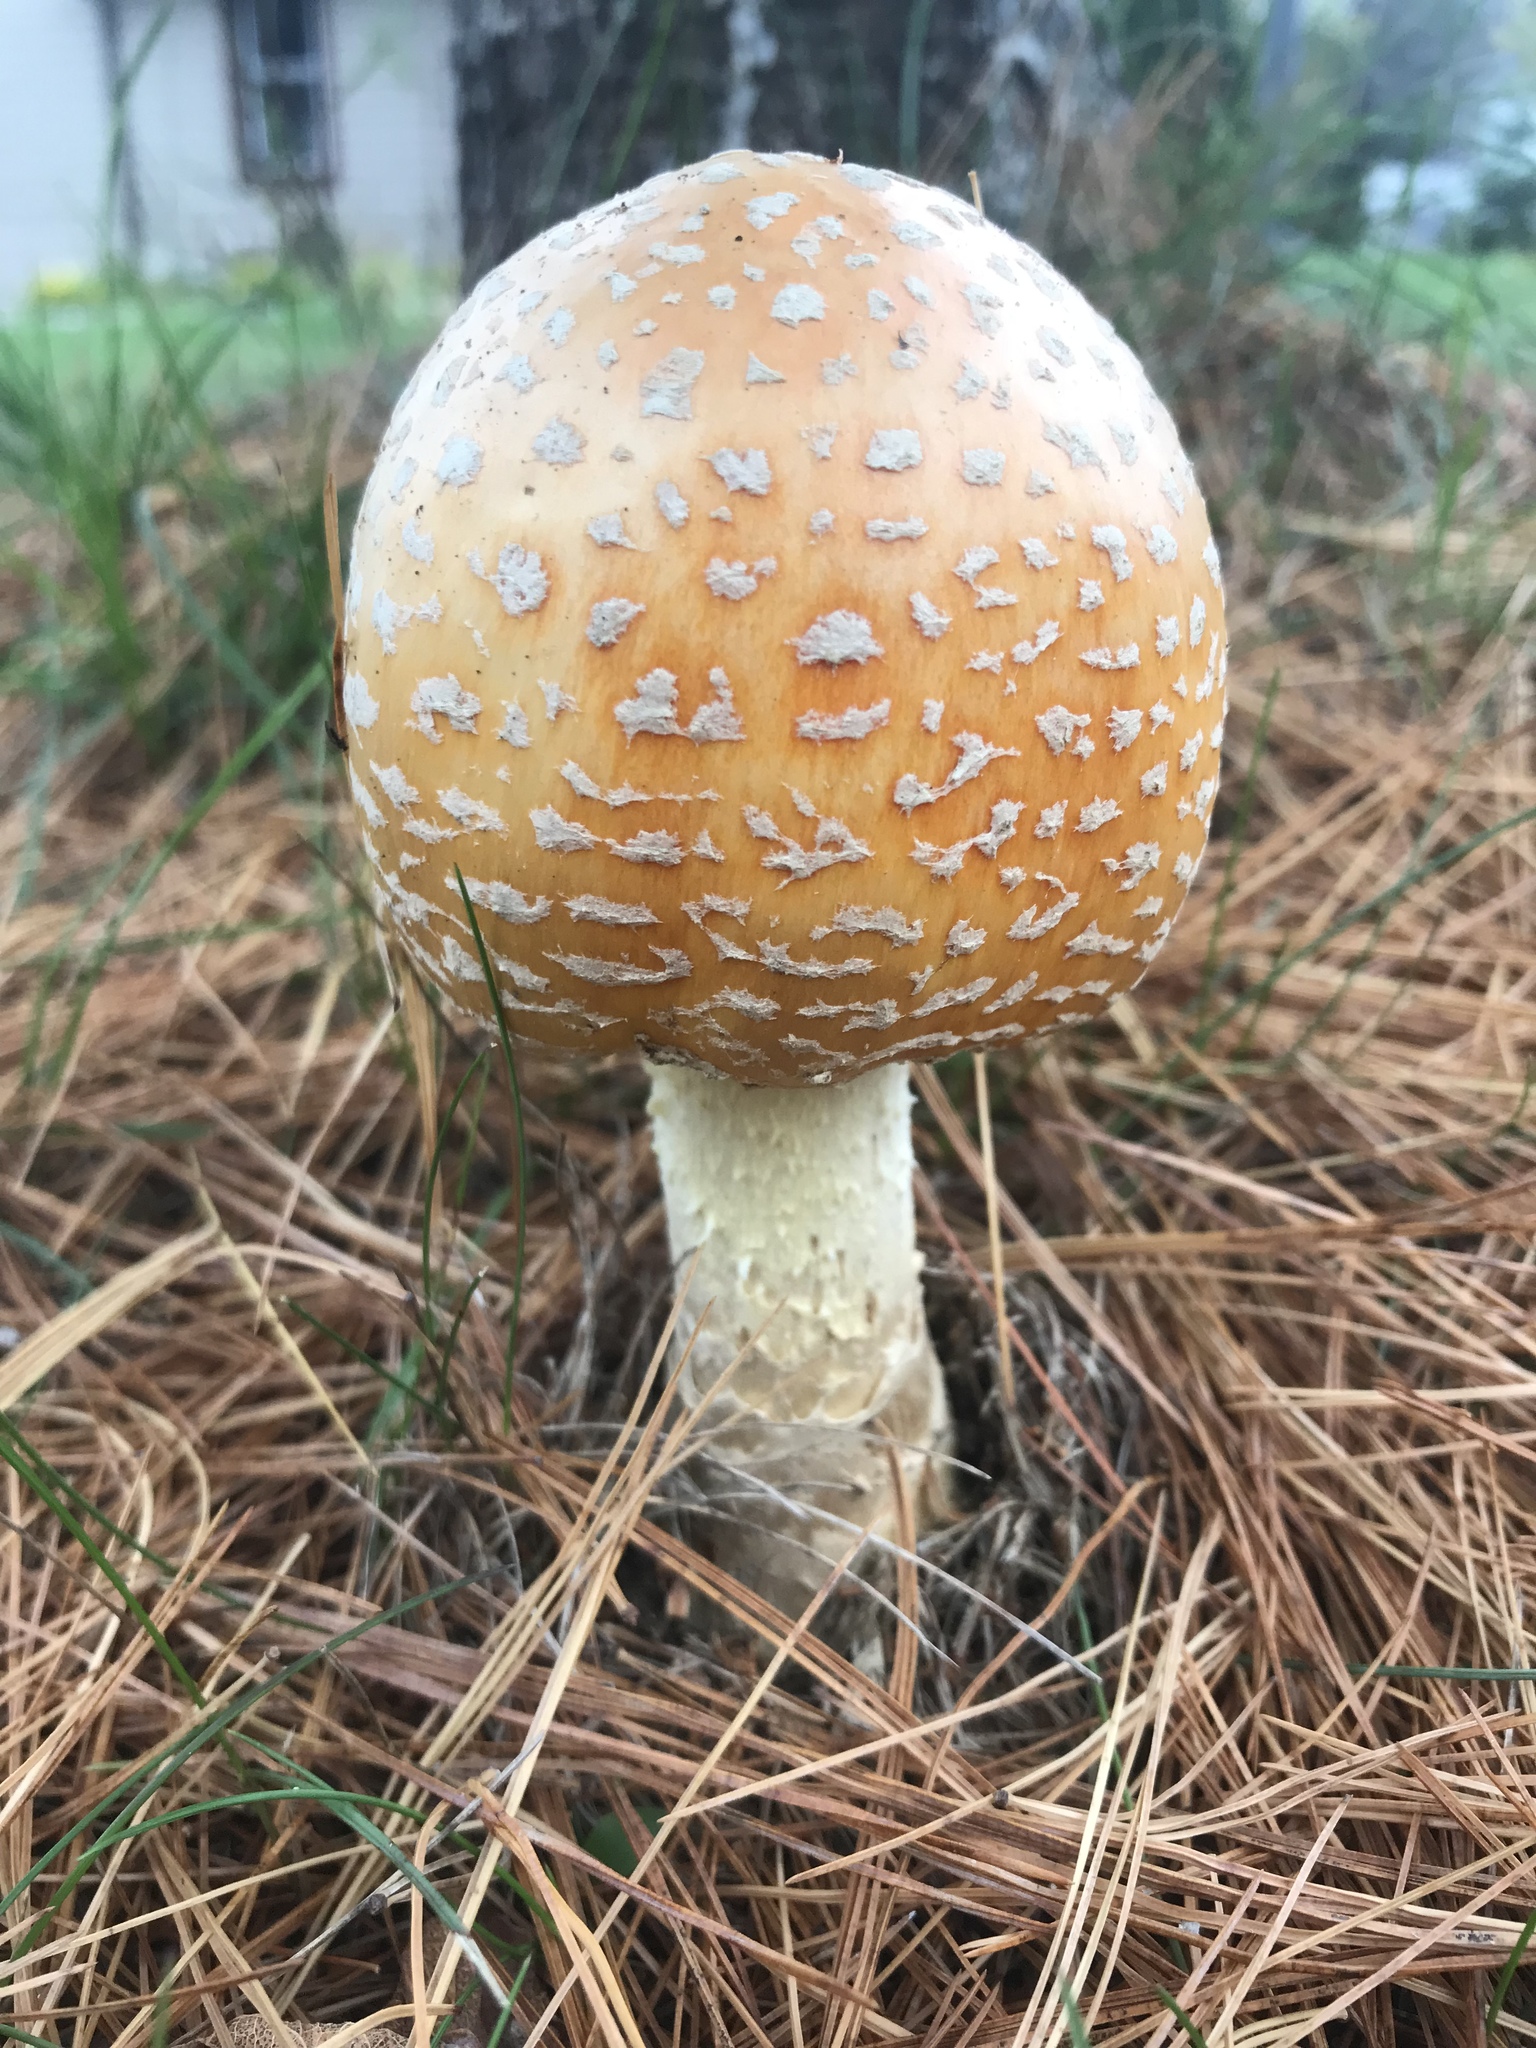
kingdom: Fungi
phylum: Basidiomycota
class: Agaricomycetes
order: Agaricales
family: Amanitaceae
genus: Amanita
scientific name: Amanita muscaria
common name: Fly agaric
